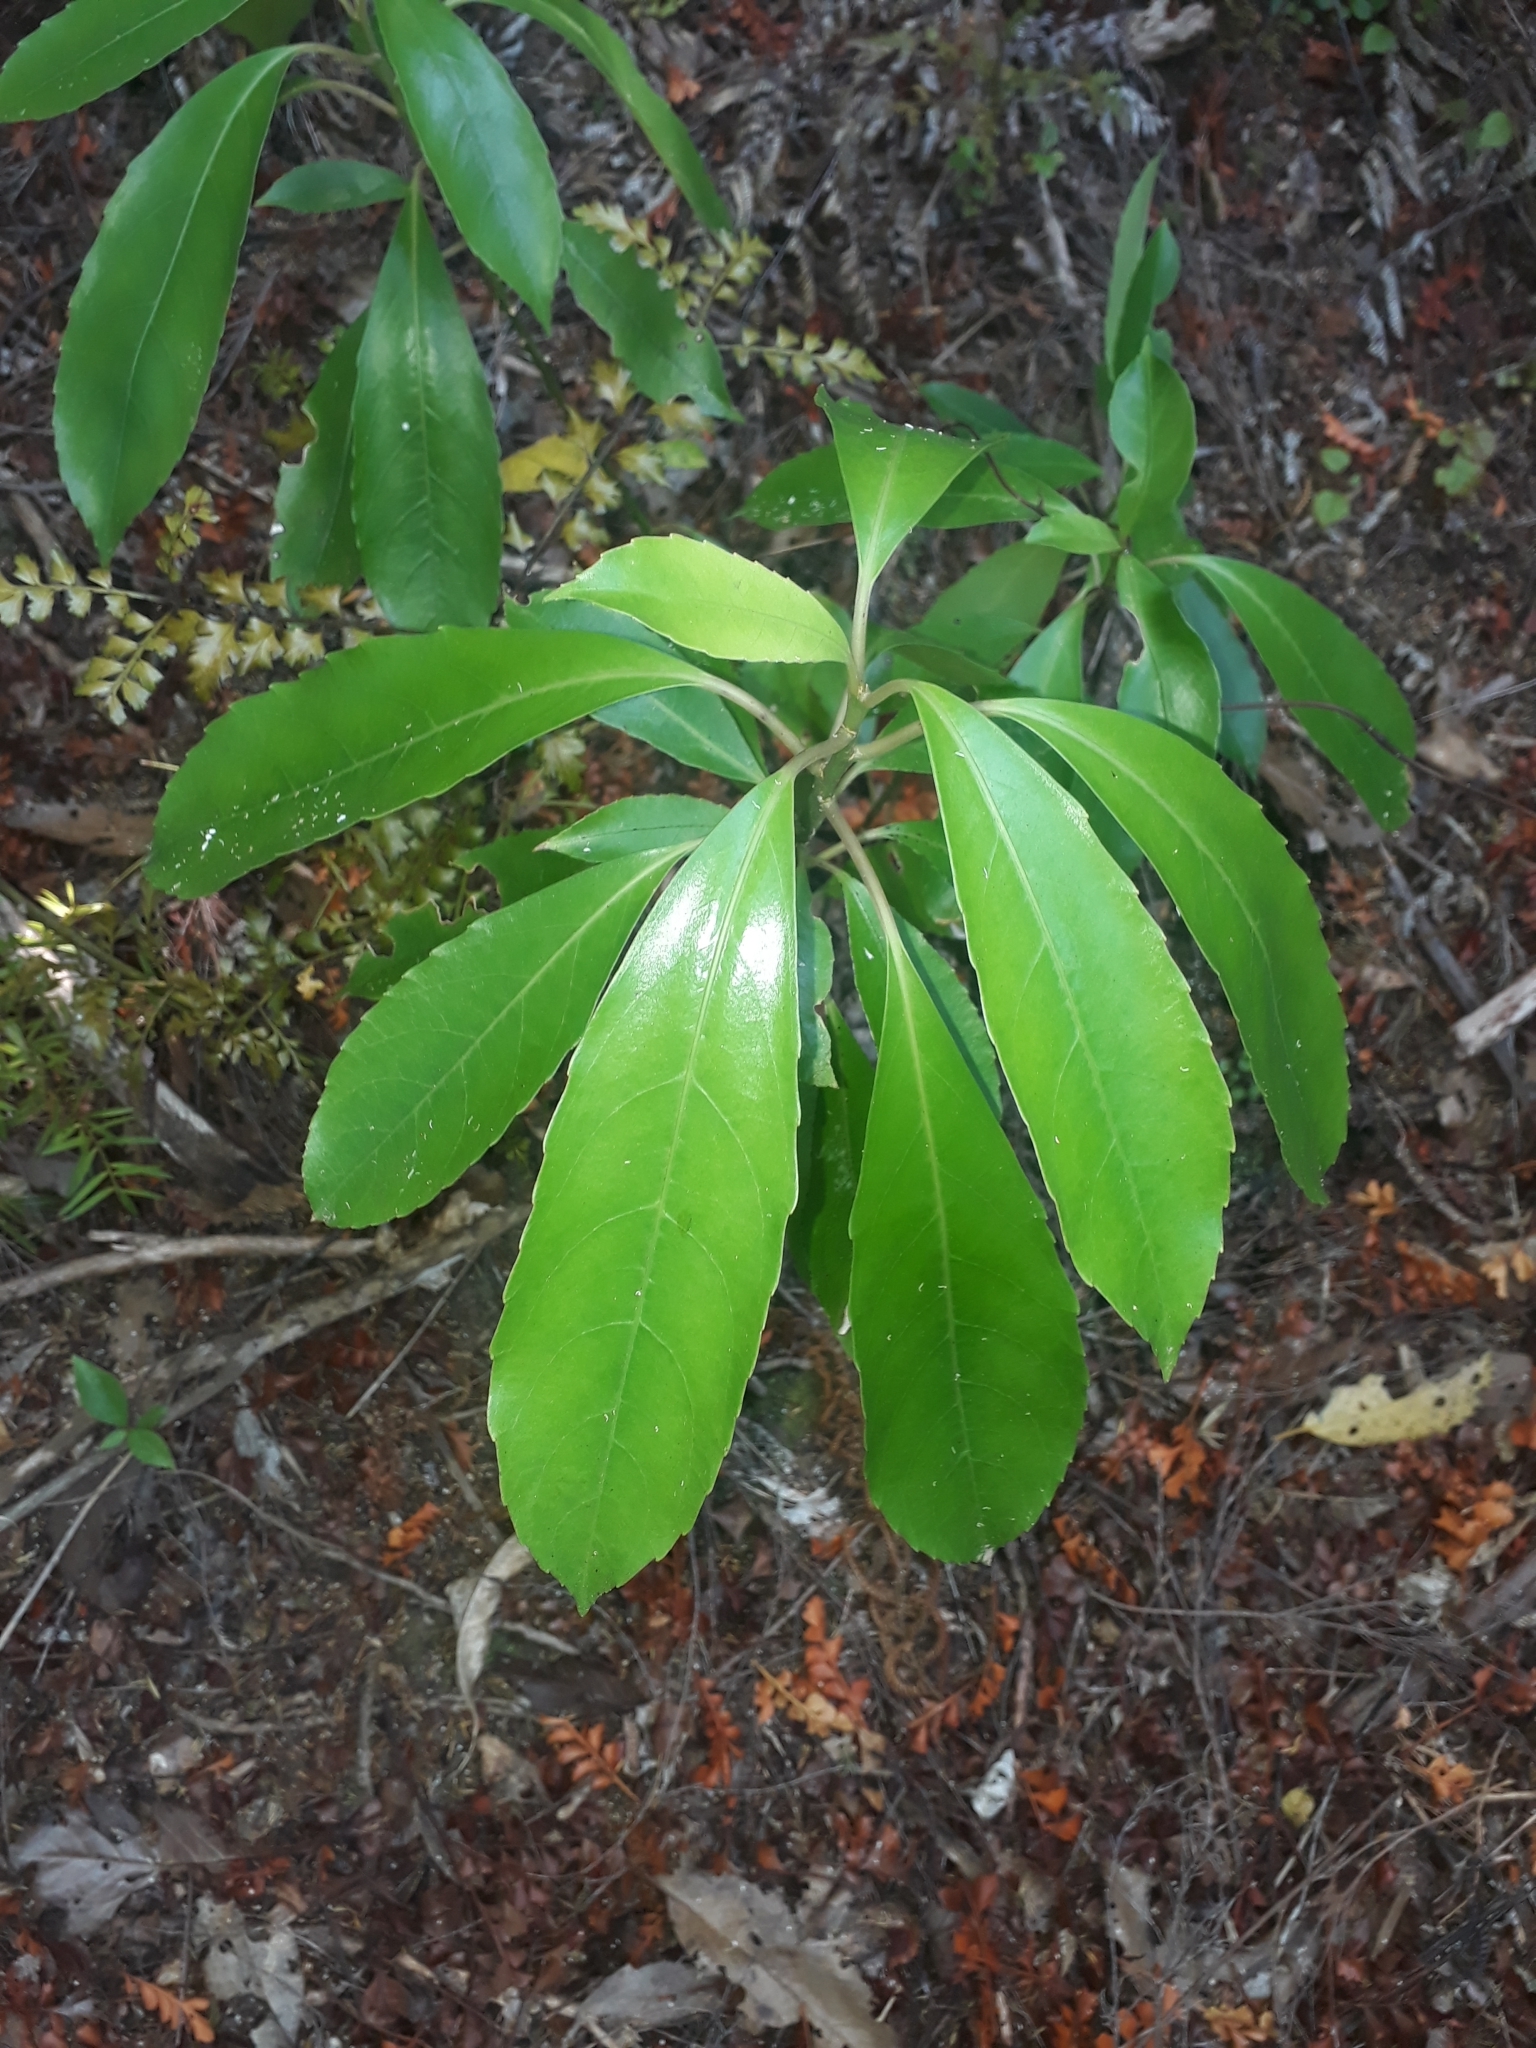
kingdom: Plantae
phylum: Tracheophyta
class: Magnoliopsida
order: Malpighiales
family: Violaceae
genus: Melicytus
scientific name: Melicytus macrophyllus
